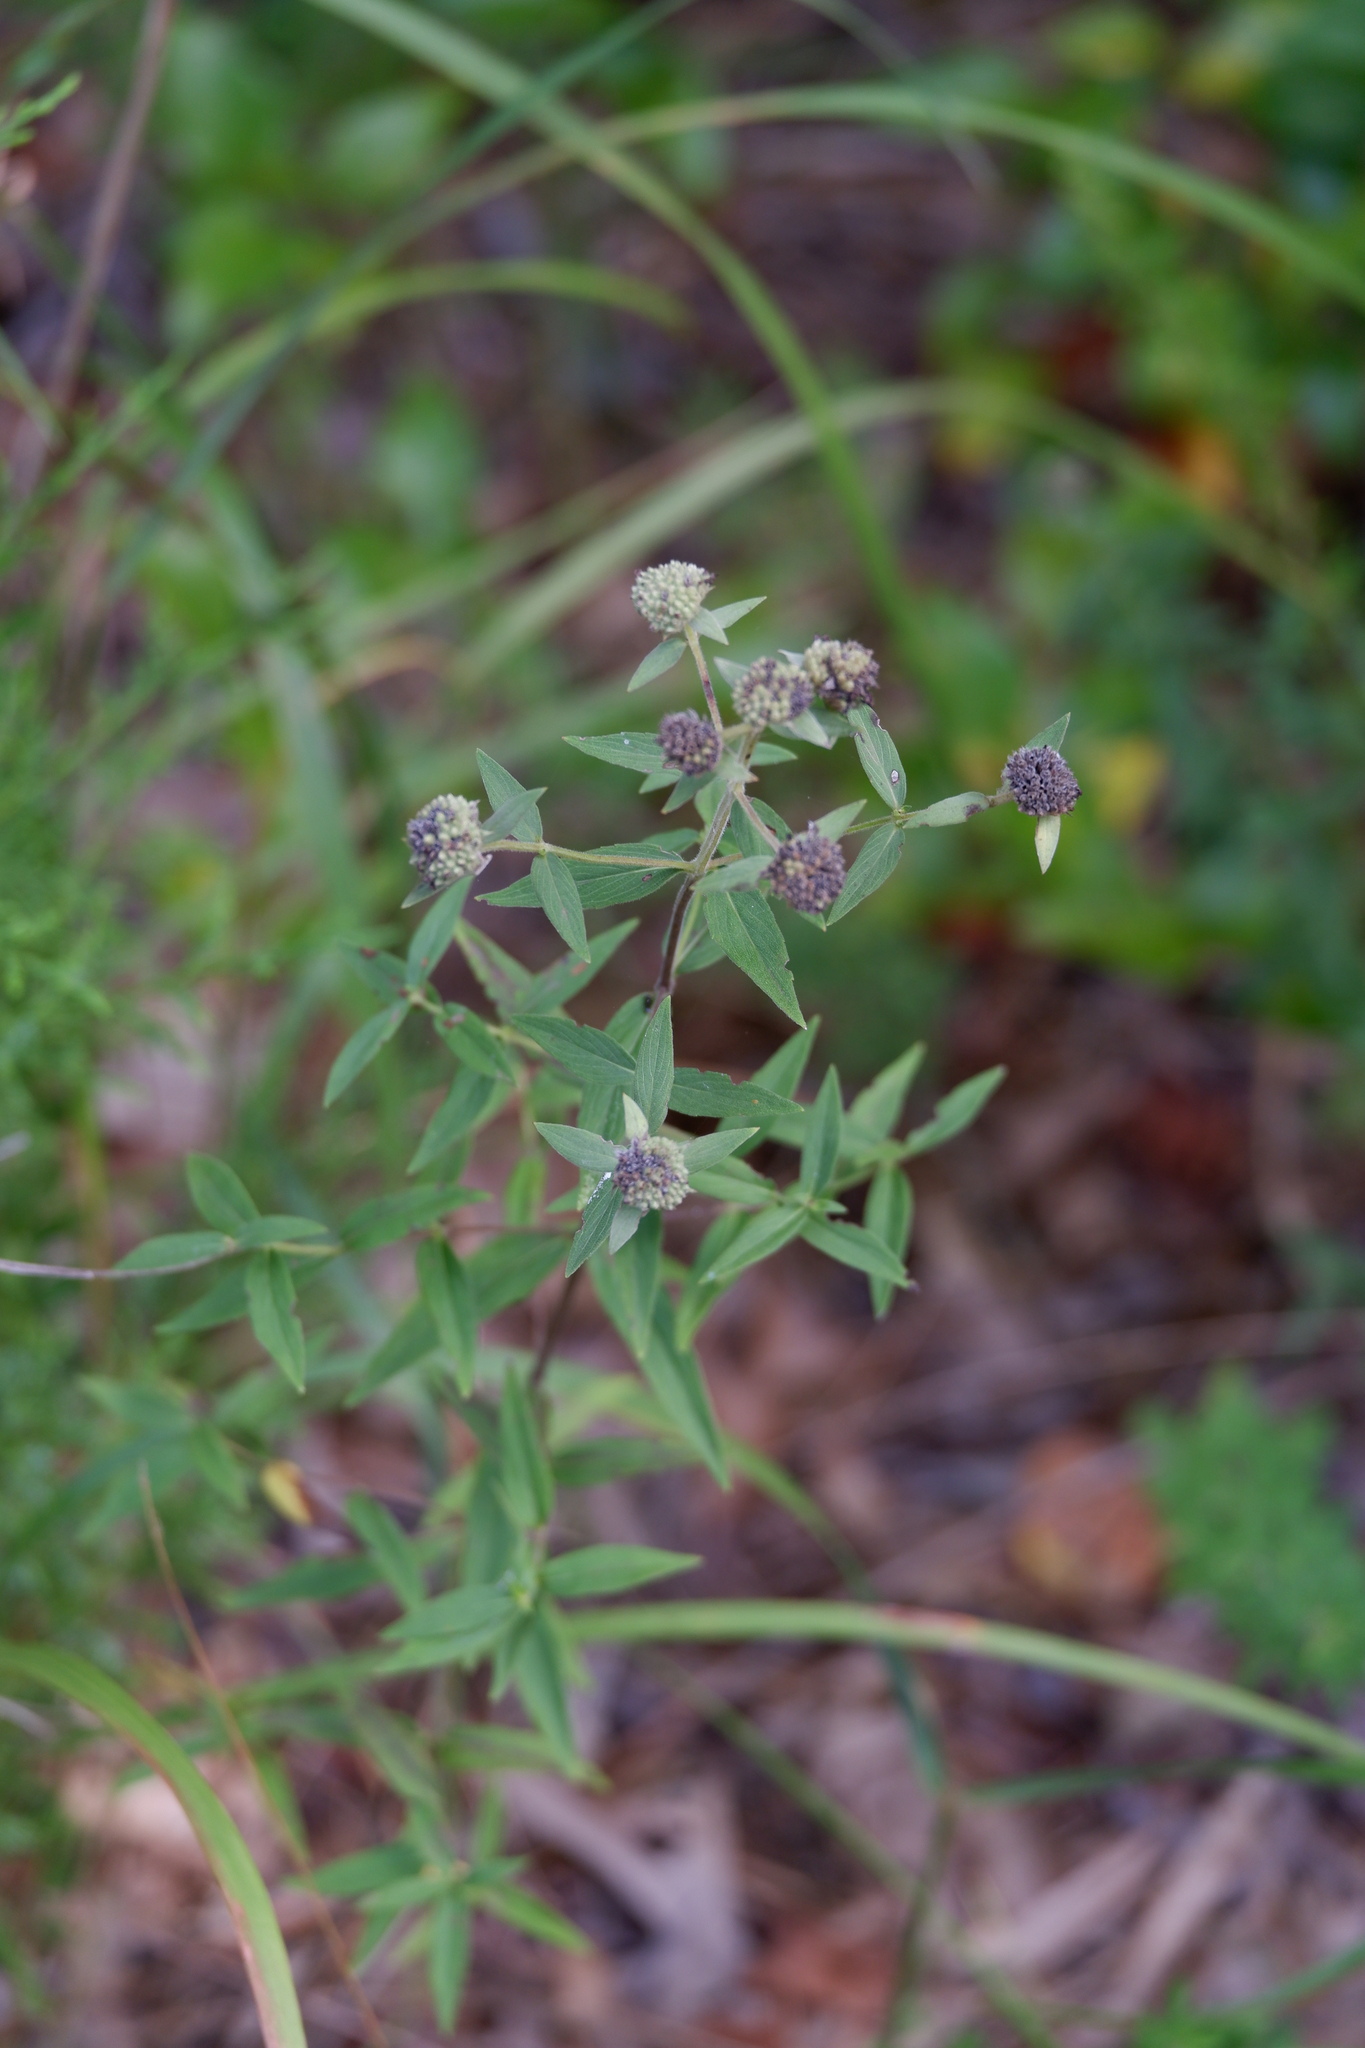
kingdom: Plantae
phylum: Tracheophyta
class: Magnoliopsida
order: Lamiales
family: Lamiaceae
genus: Pycnanthemum
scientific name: Pycnanthemum verticillatum
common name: Whorled mountain-mint
